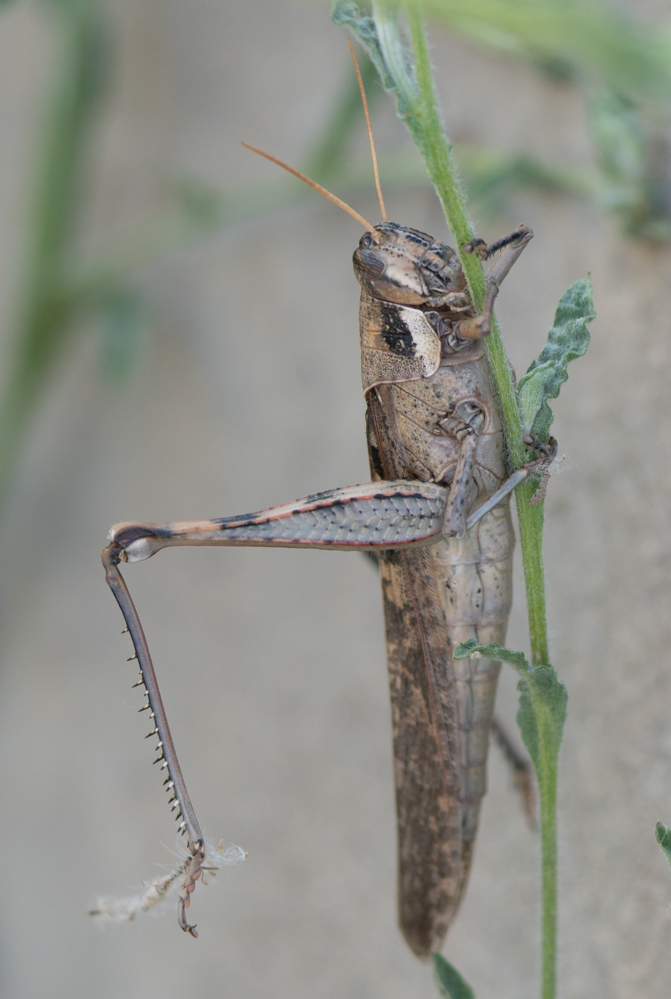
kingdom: Animalia
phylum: Arthropoda
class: Insecta
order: Orthoptera
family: Acrididae
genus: Schistocerca
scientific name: Schistocerca nitens
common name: Vagrant grasshopper
